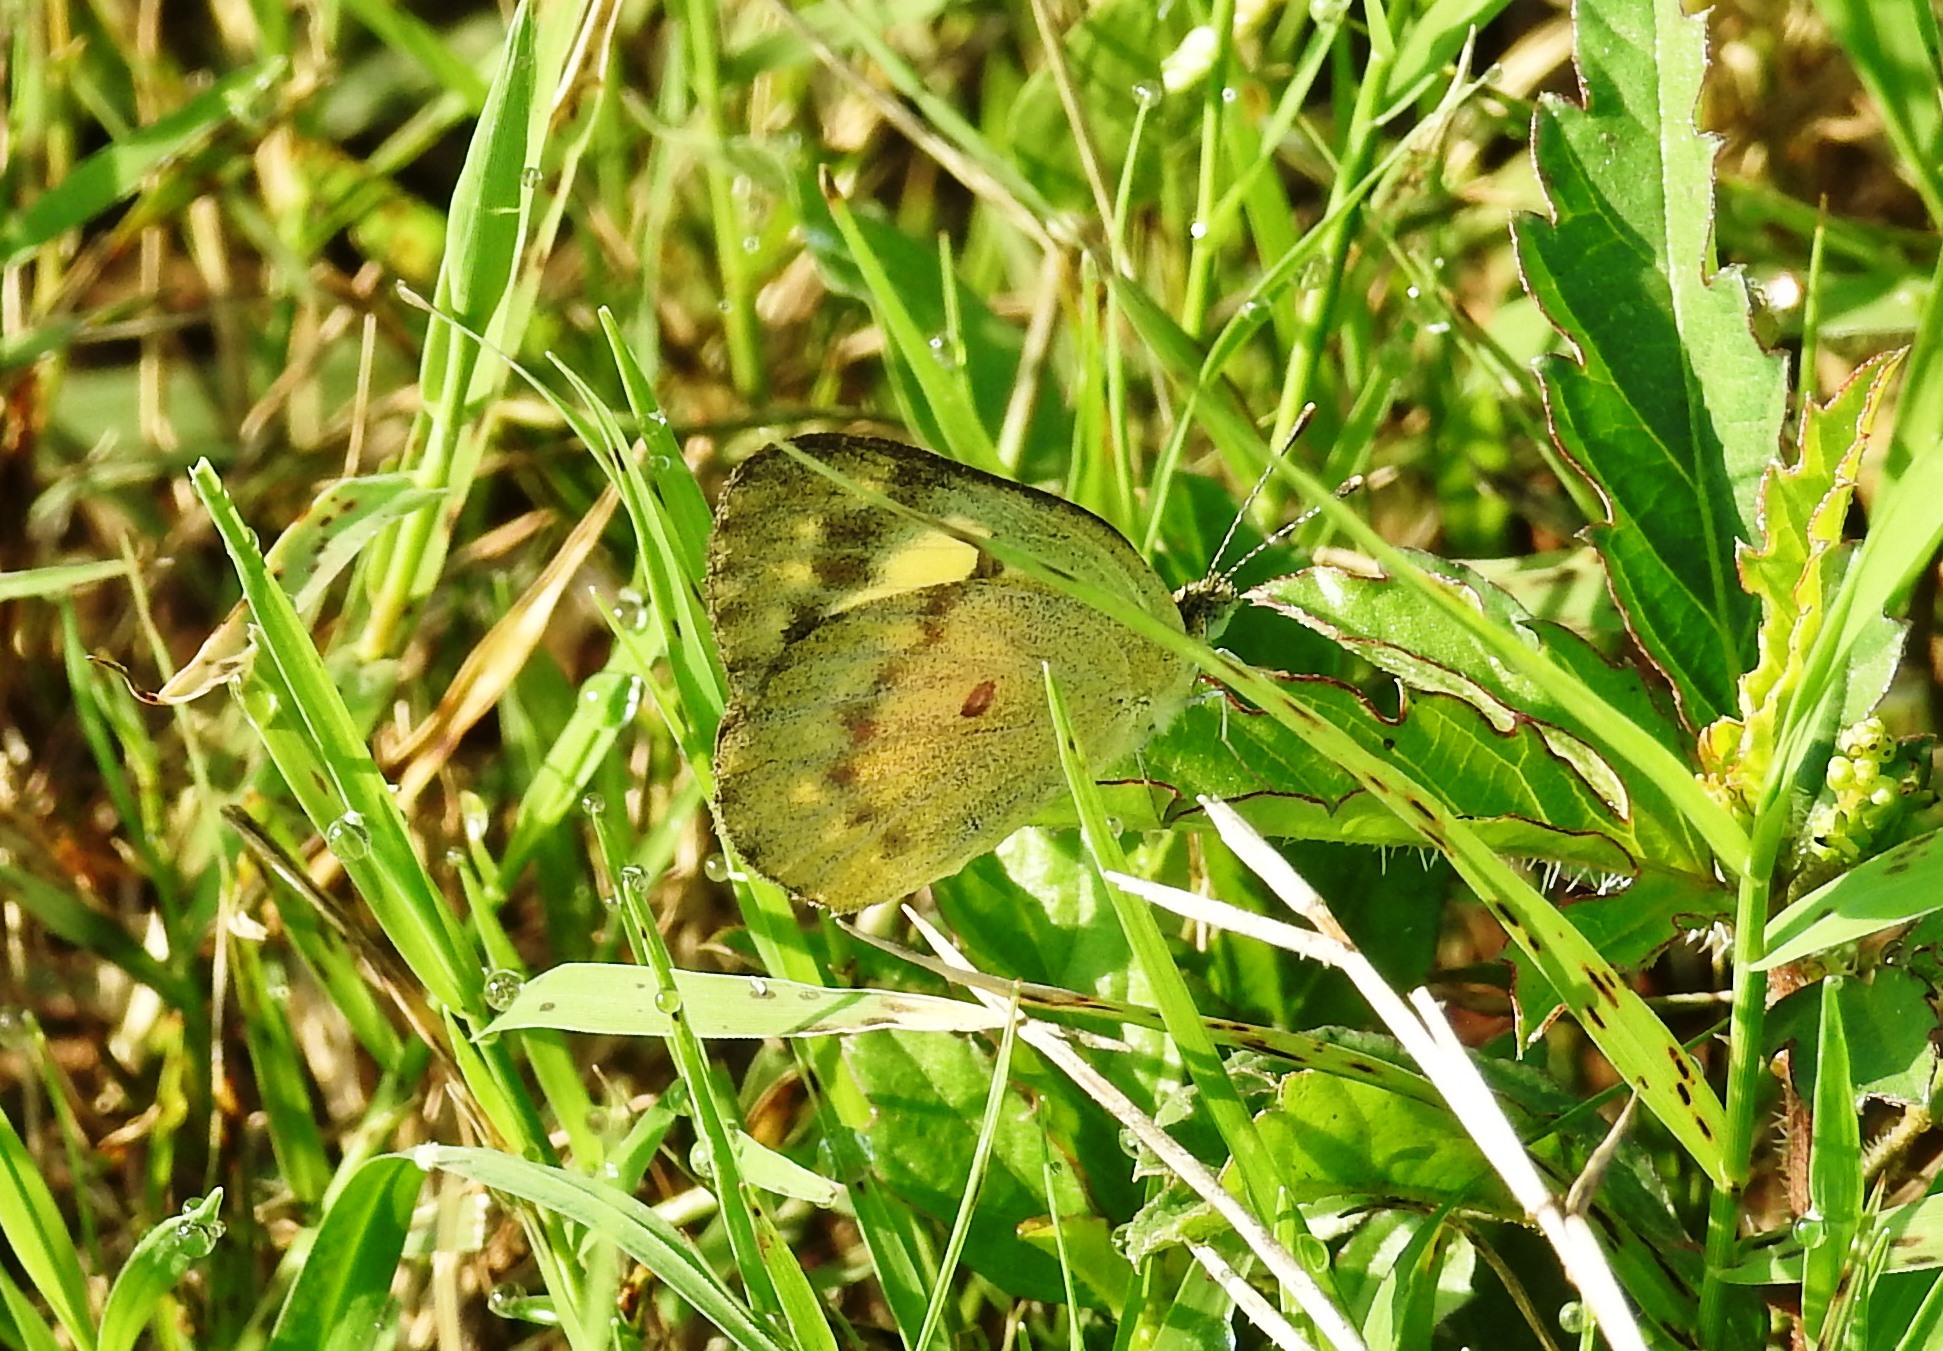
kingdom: Animalia
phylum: Arthropoda
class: Insecta
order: Lepidoptera
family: Pieridae
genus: Colotis
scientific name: Colotis amata
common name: Small salmon arab
